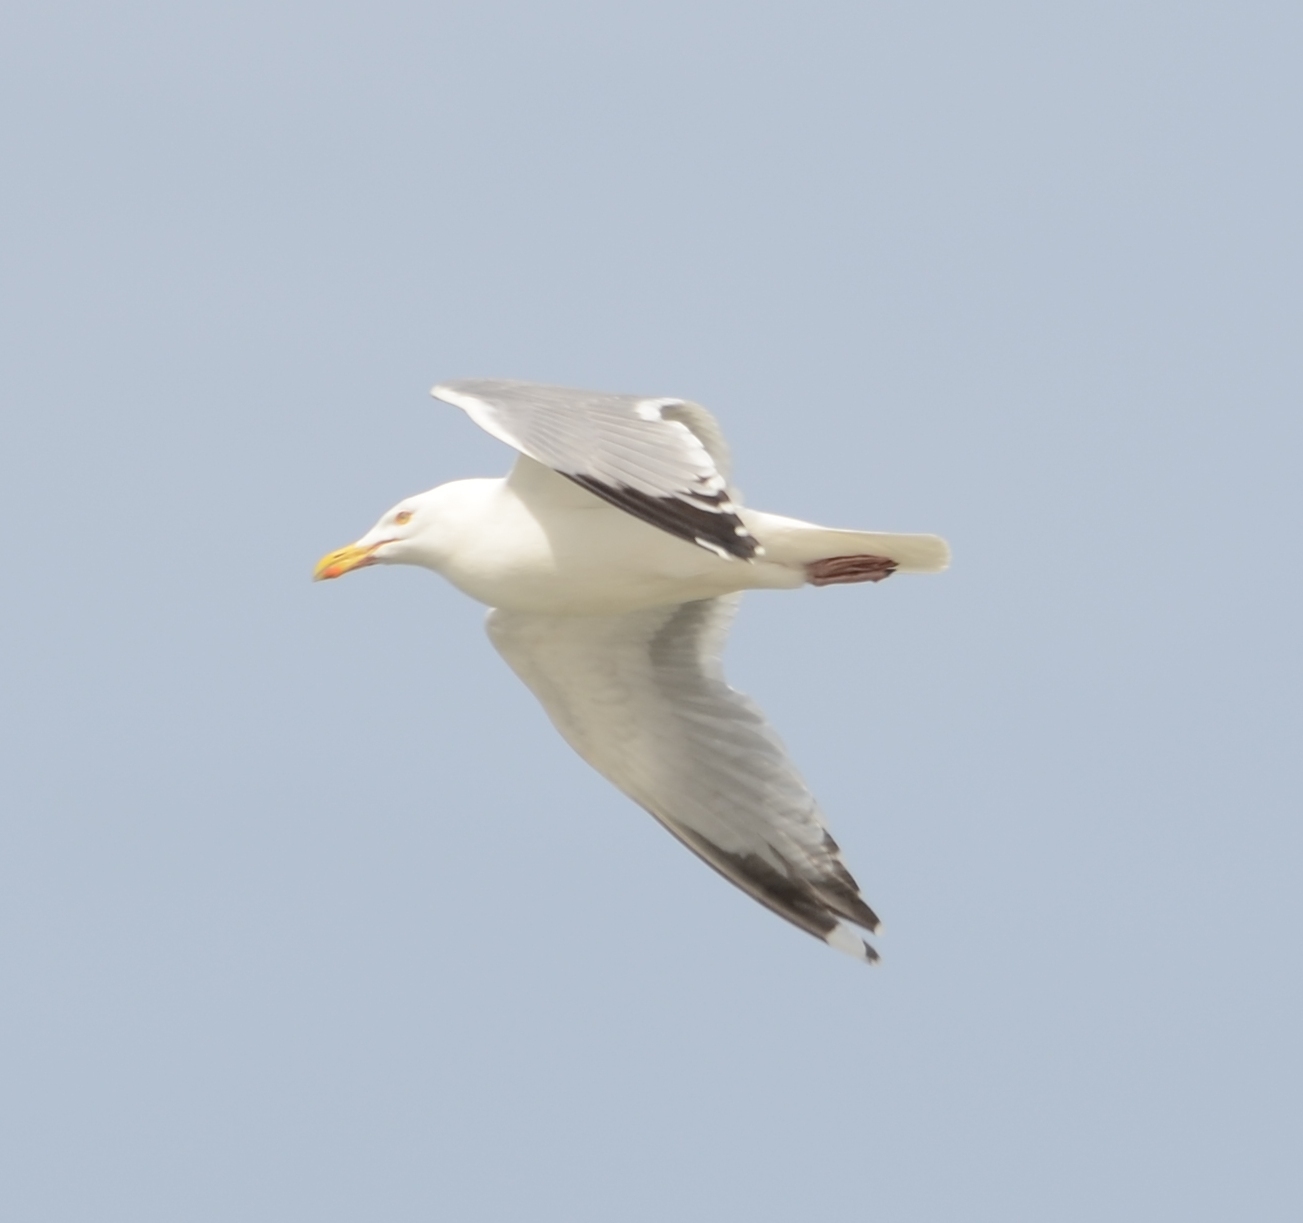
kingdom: Animalia
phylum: Chordata
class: Aves
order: Charadriiformes
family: Laridae
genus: Larus
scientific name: Larus argentatus
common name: Herring gull
